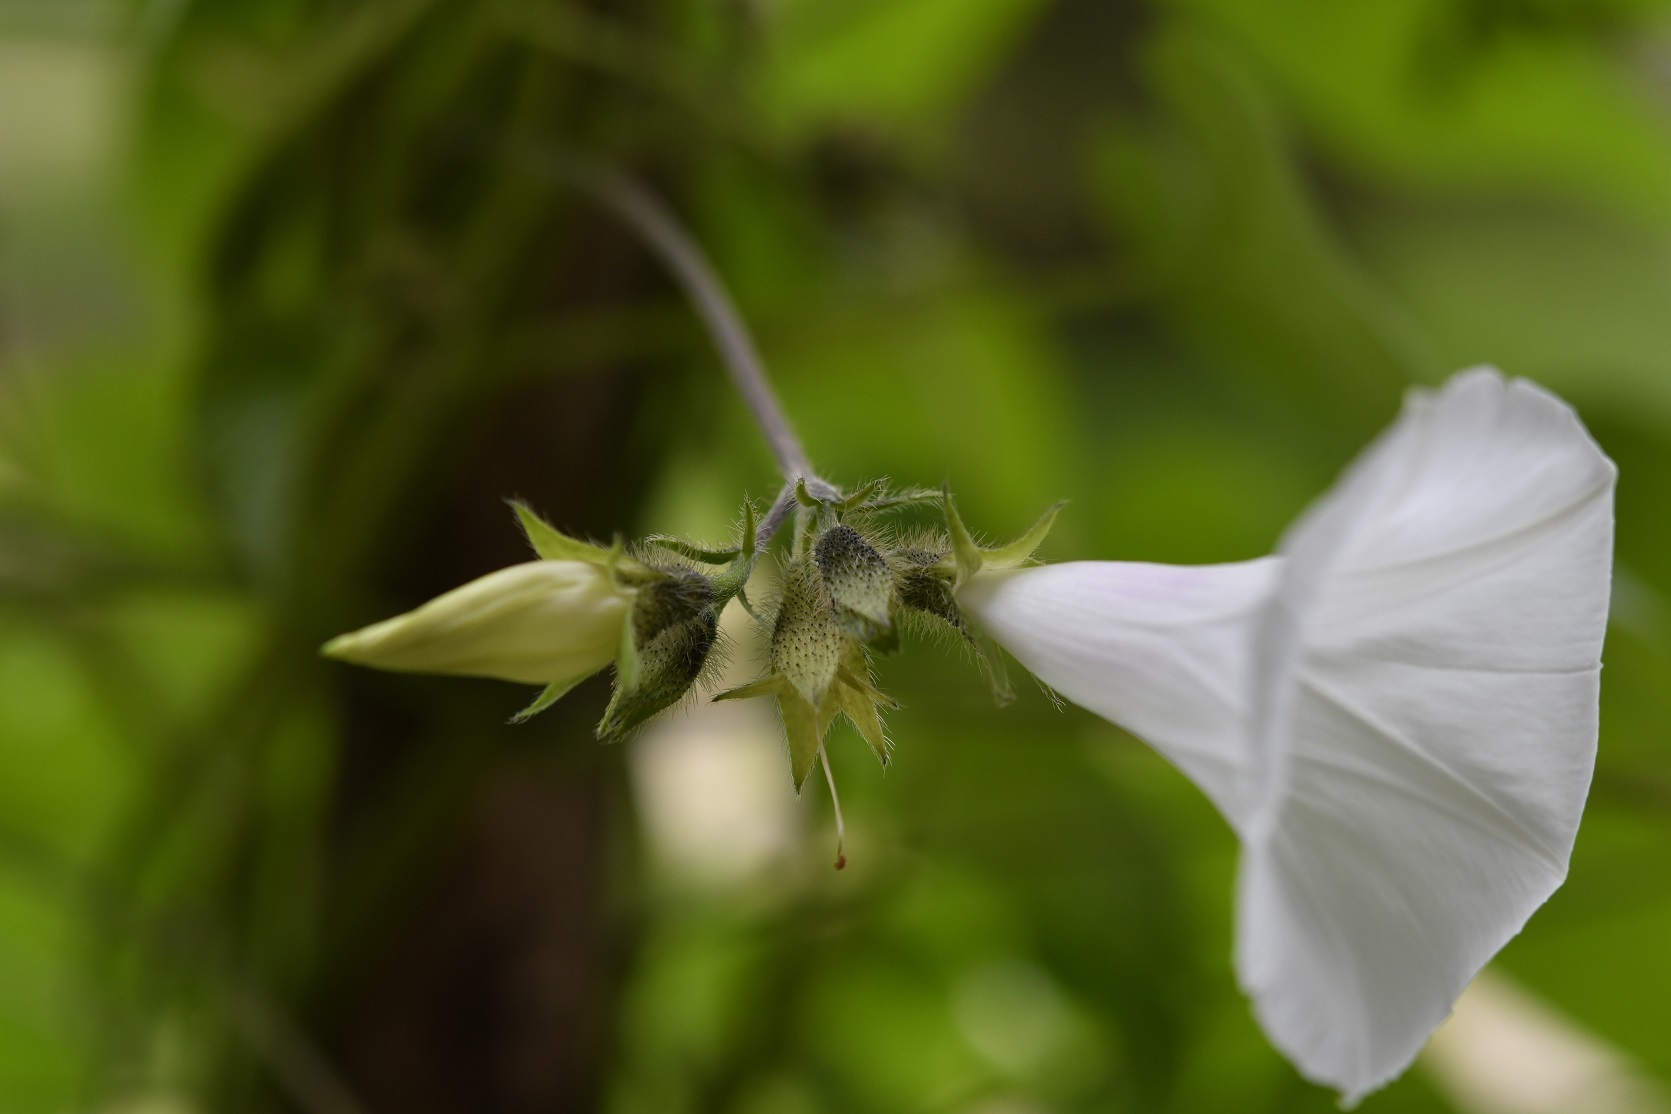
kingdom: Plantae
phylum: Tracheophyta
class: Magnoliopsida
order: Solanales
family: Convolvulaceae
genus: Ipomoea
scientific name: Ipomoea purpurea
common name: Common morning-glory
